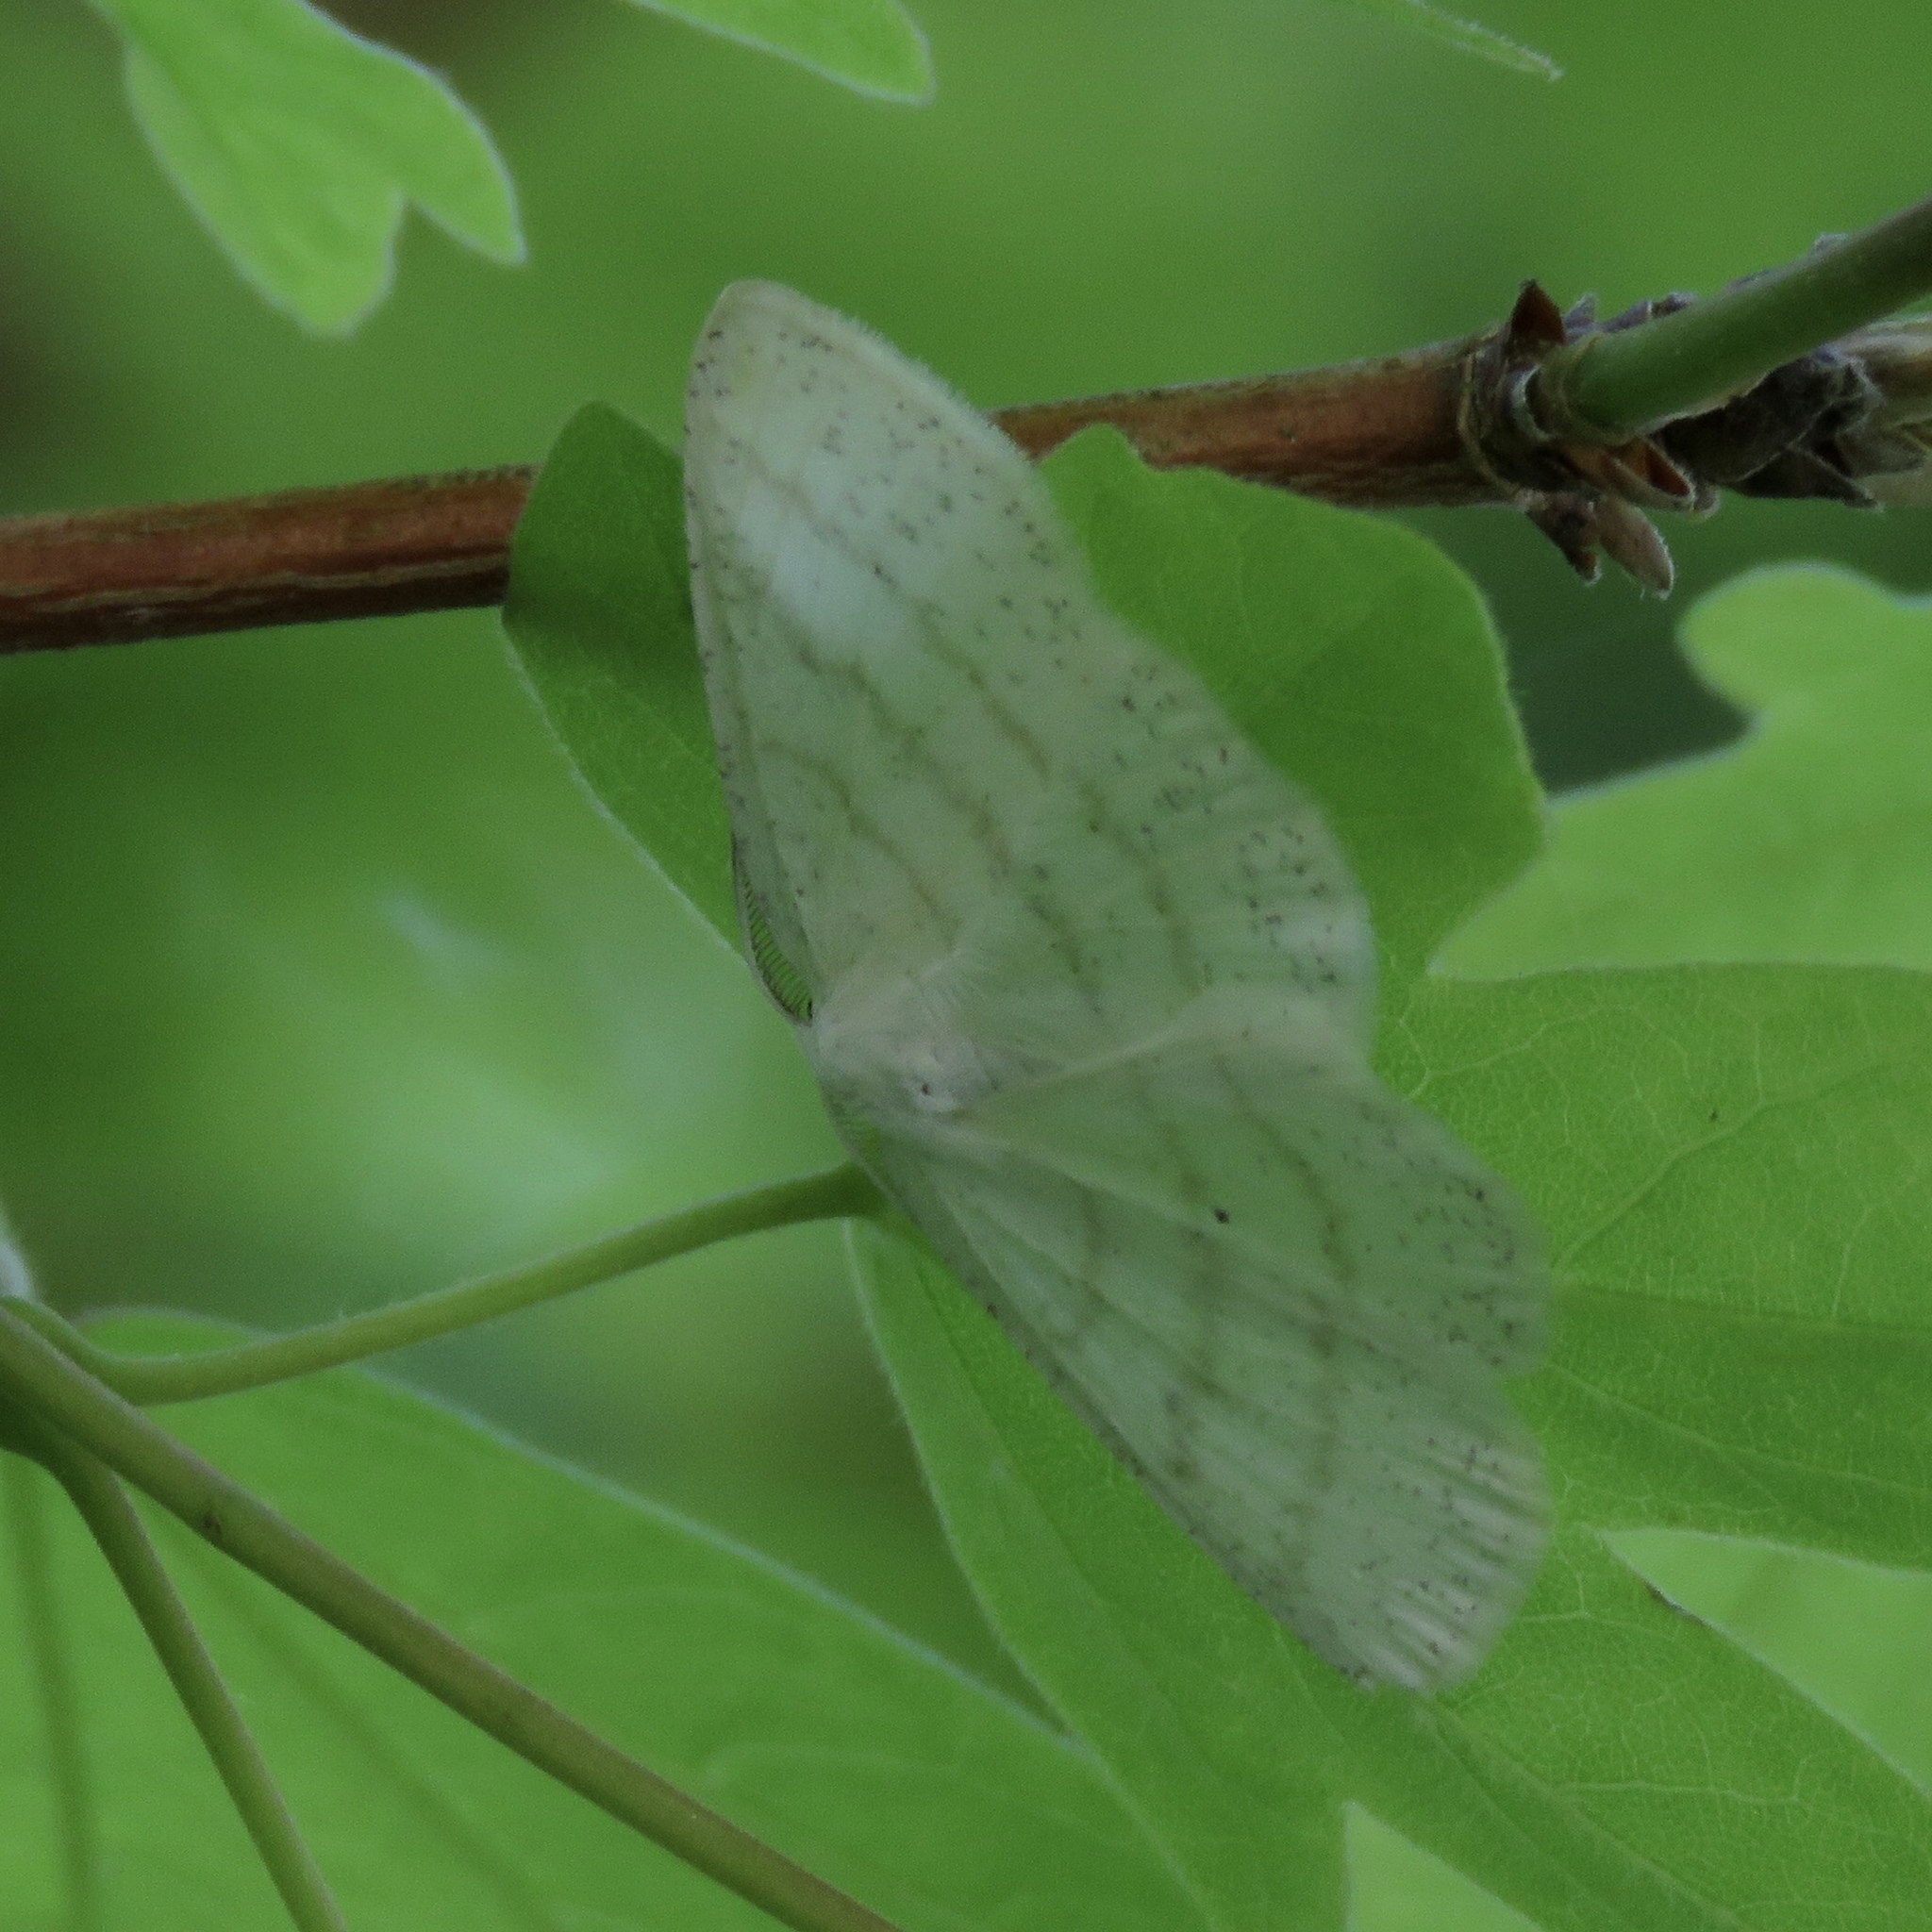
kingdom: Animalia
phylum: Arthropoda
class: Insecta
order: Lepidoptera
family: Geometridae
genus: Cabera
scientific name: Cabera pusaria
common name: Common white wave
